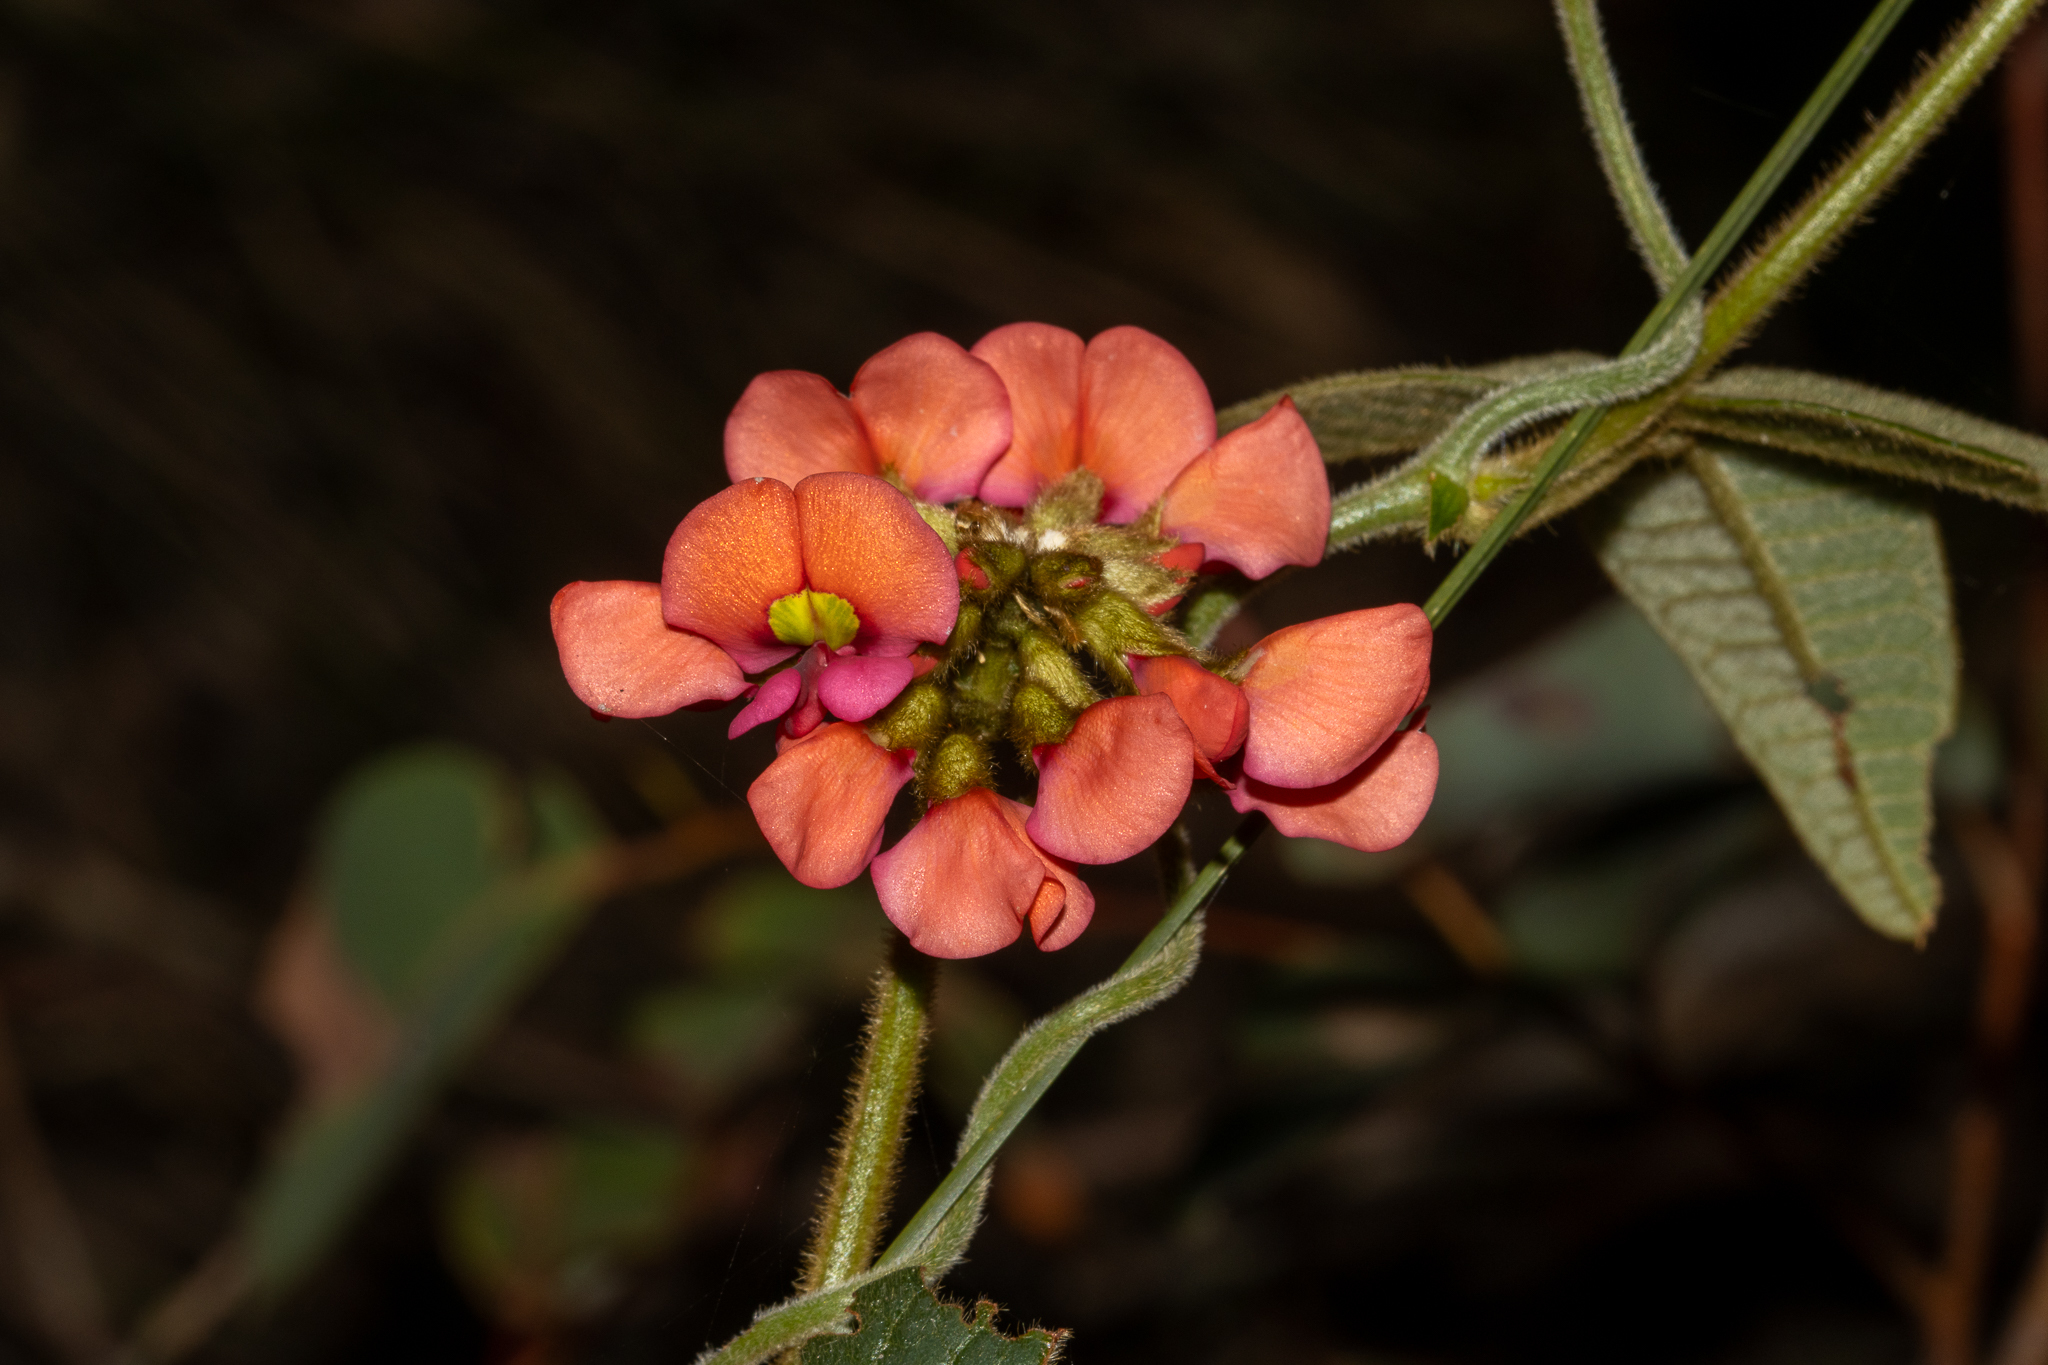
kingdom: Plantae
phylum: Tracheophyta
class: Magnoliopsida
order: Fabales
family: Fabaceae
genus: Kennedia
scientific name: Kennedia coccinea
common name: Coralvine
